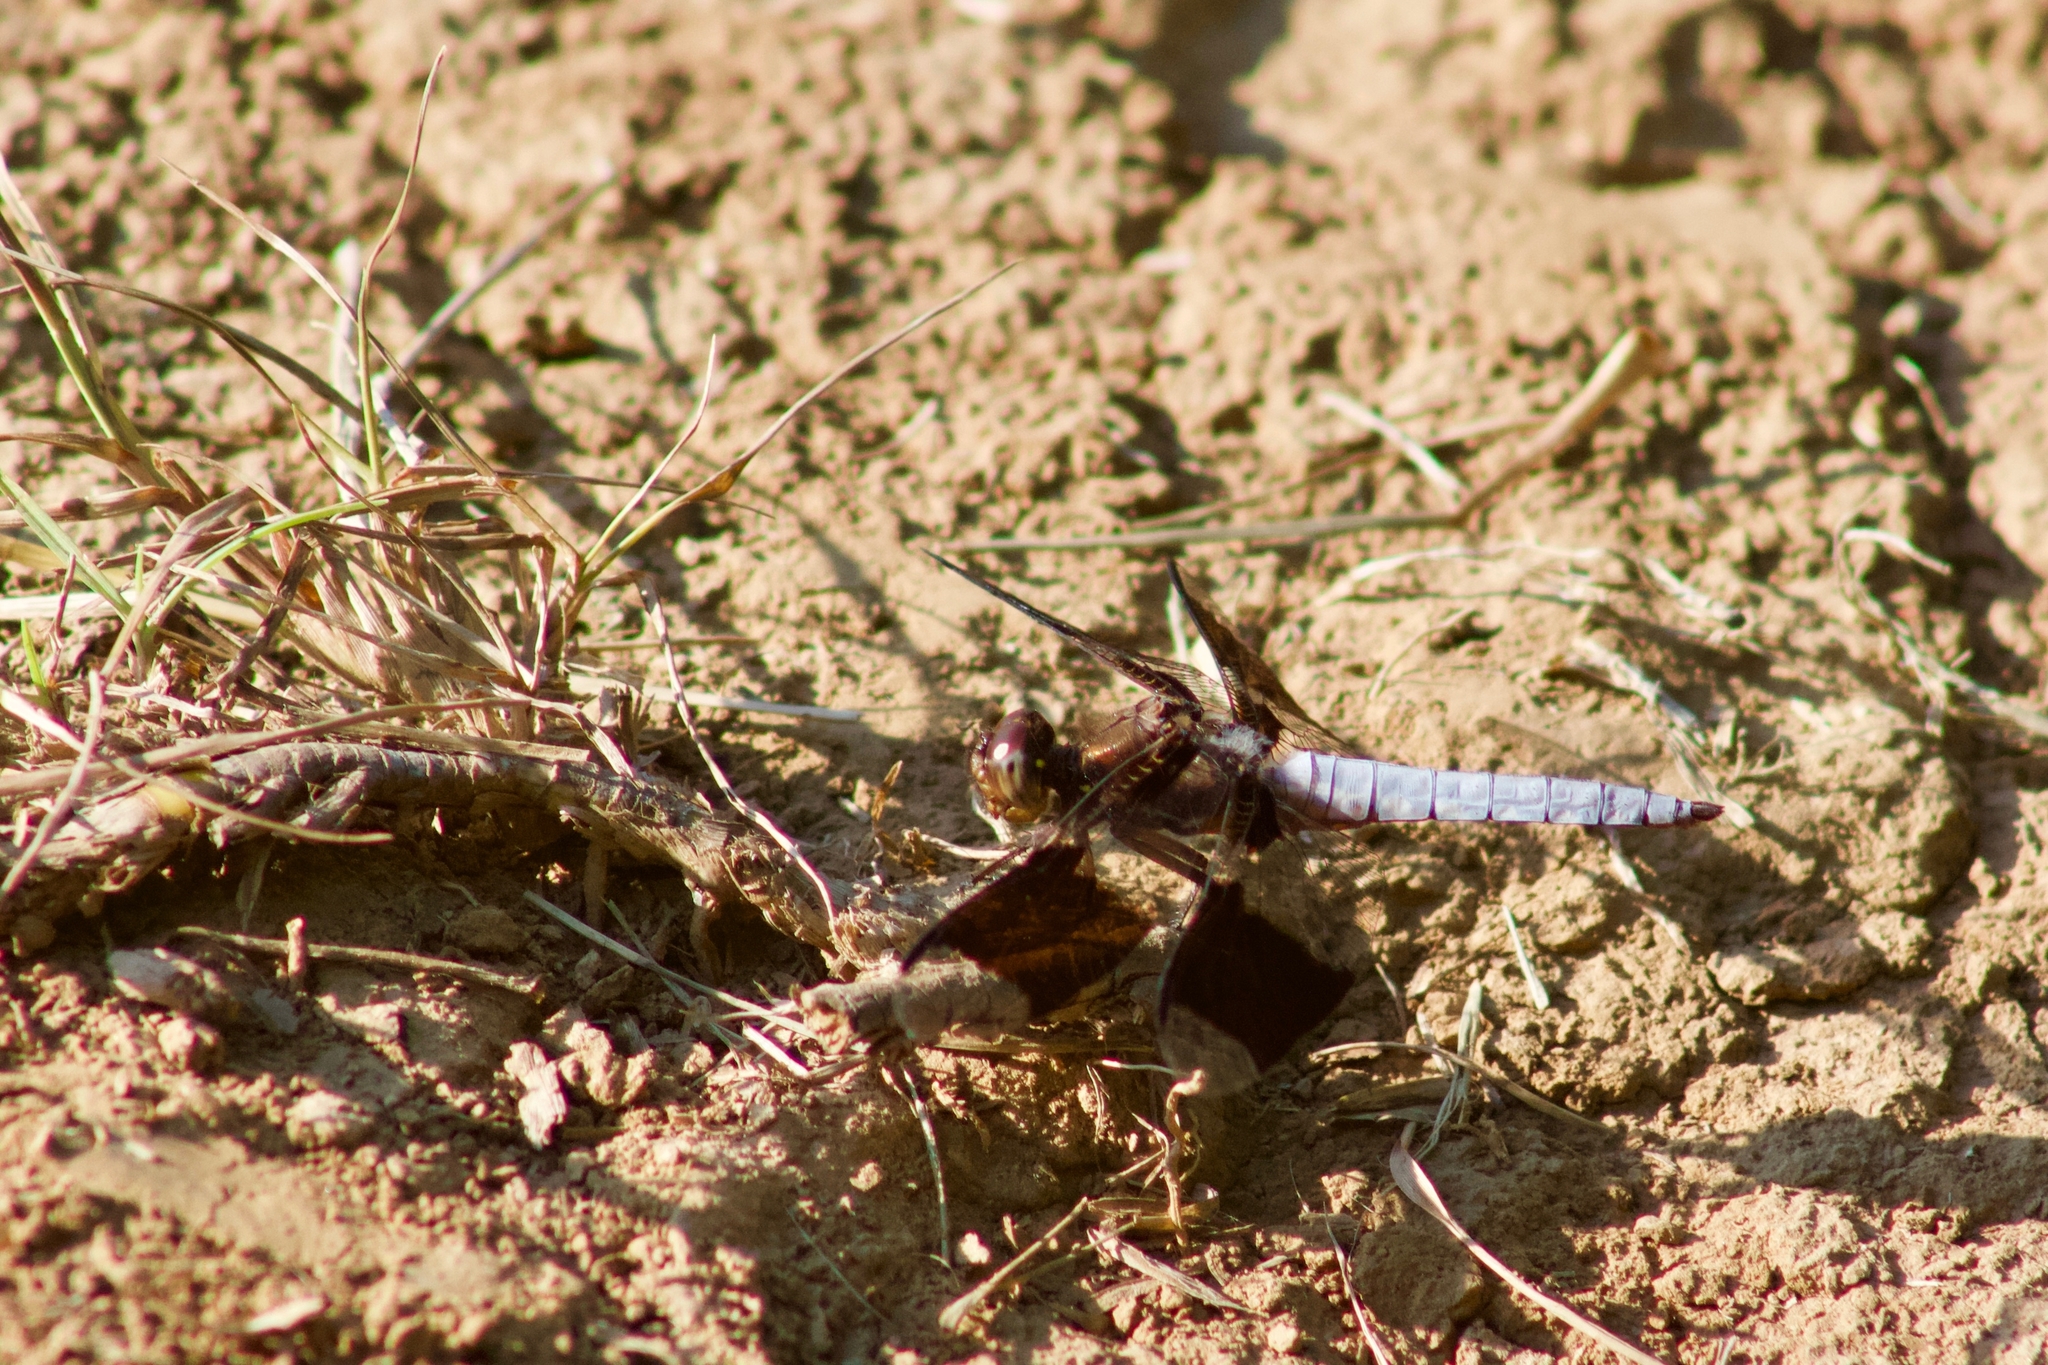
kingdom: Animalia
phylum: Arthropoda
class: Insecta
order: Odonata
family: Libellulidae
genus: Plathemis
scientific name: Plathemis lydia
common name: Common whitetail
